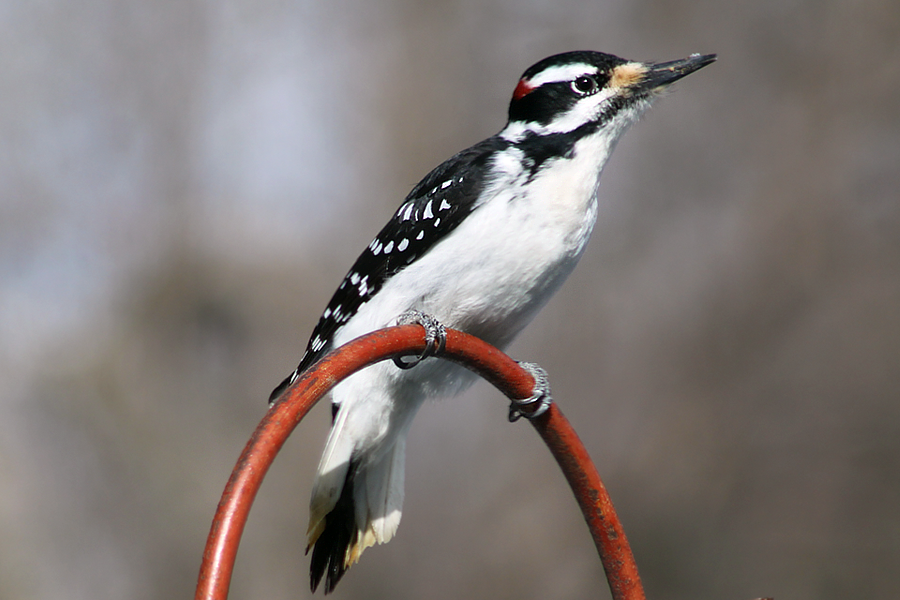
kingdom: Animalia
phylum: Chordata
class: Aves
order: Piciformes
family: Picidae
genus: Leuconotopicus
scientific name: Leuconotopicus villosus
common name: Hairy woodpecker
